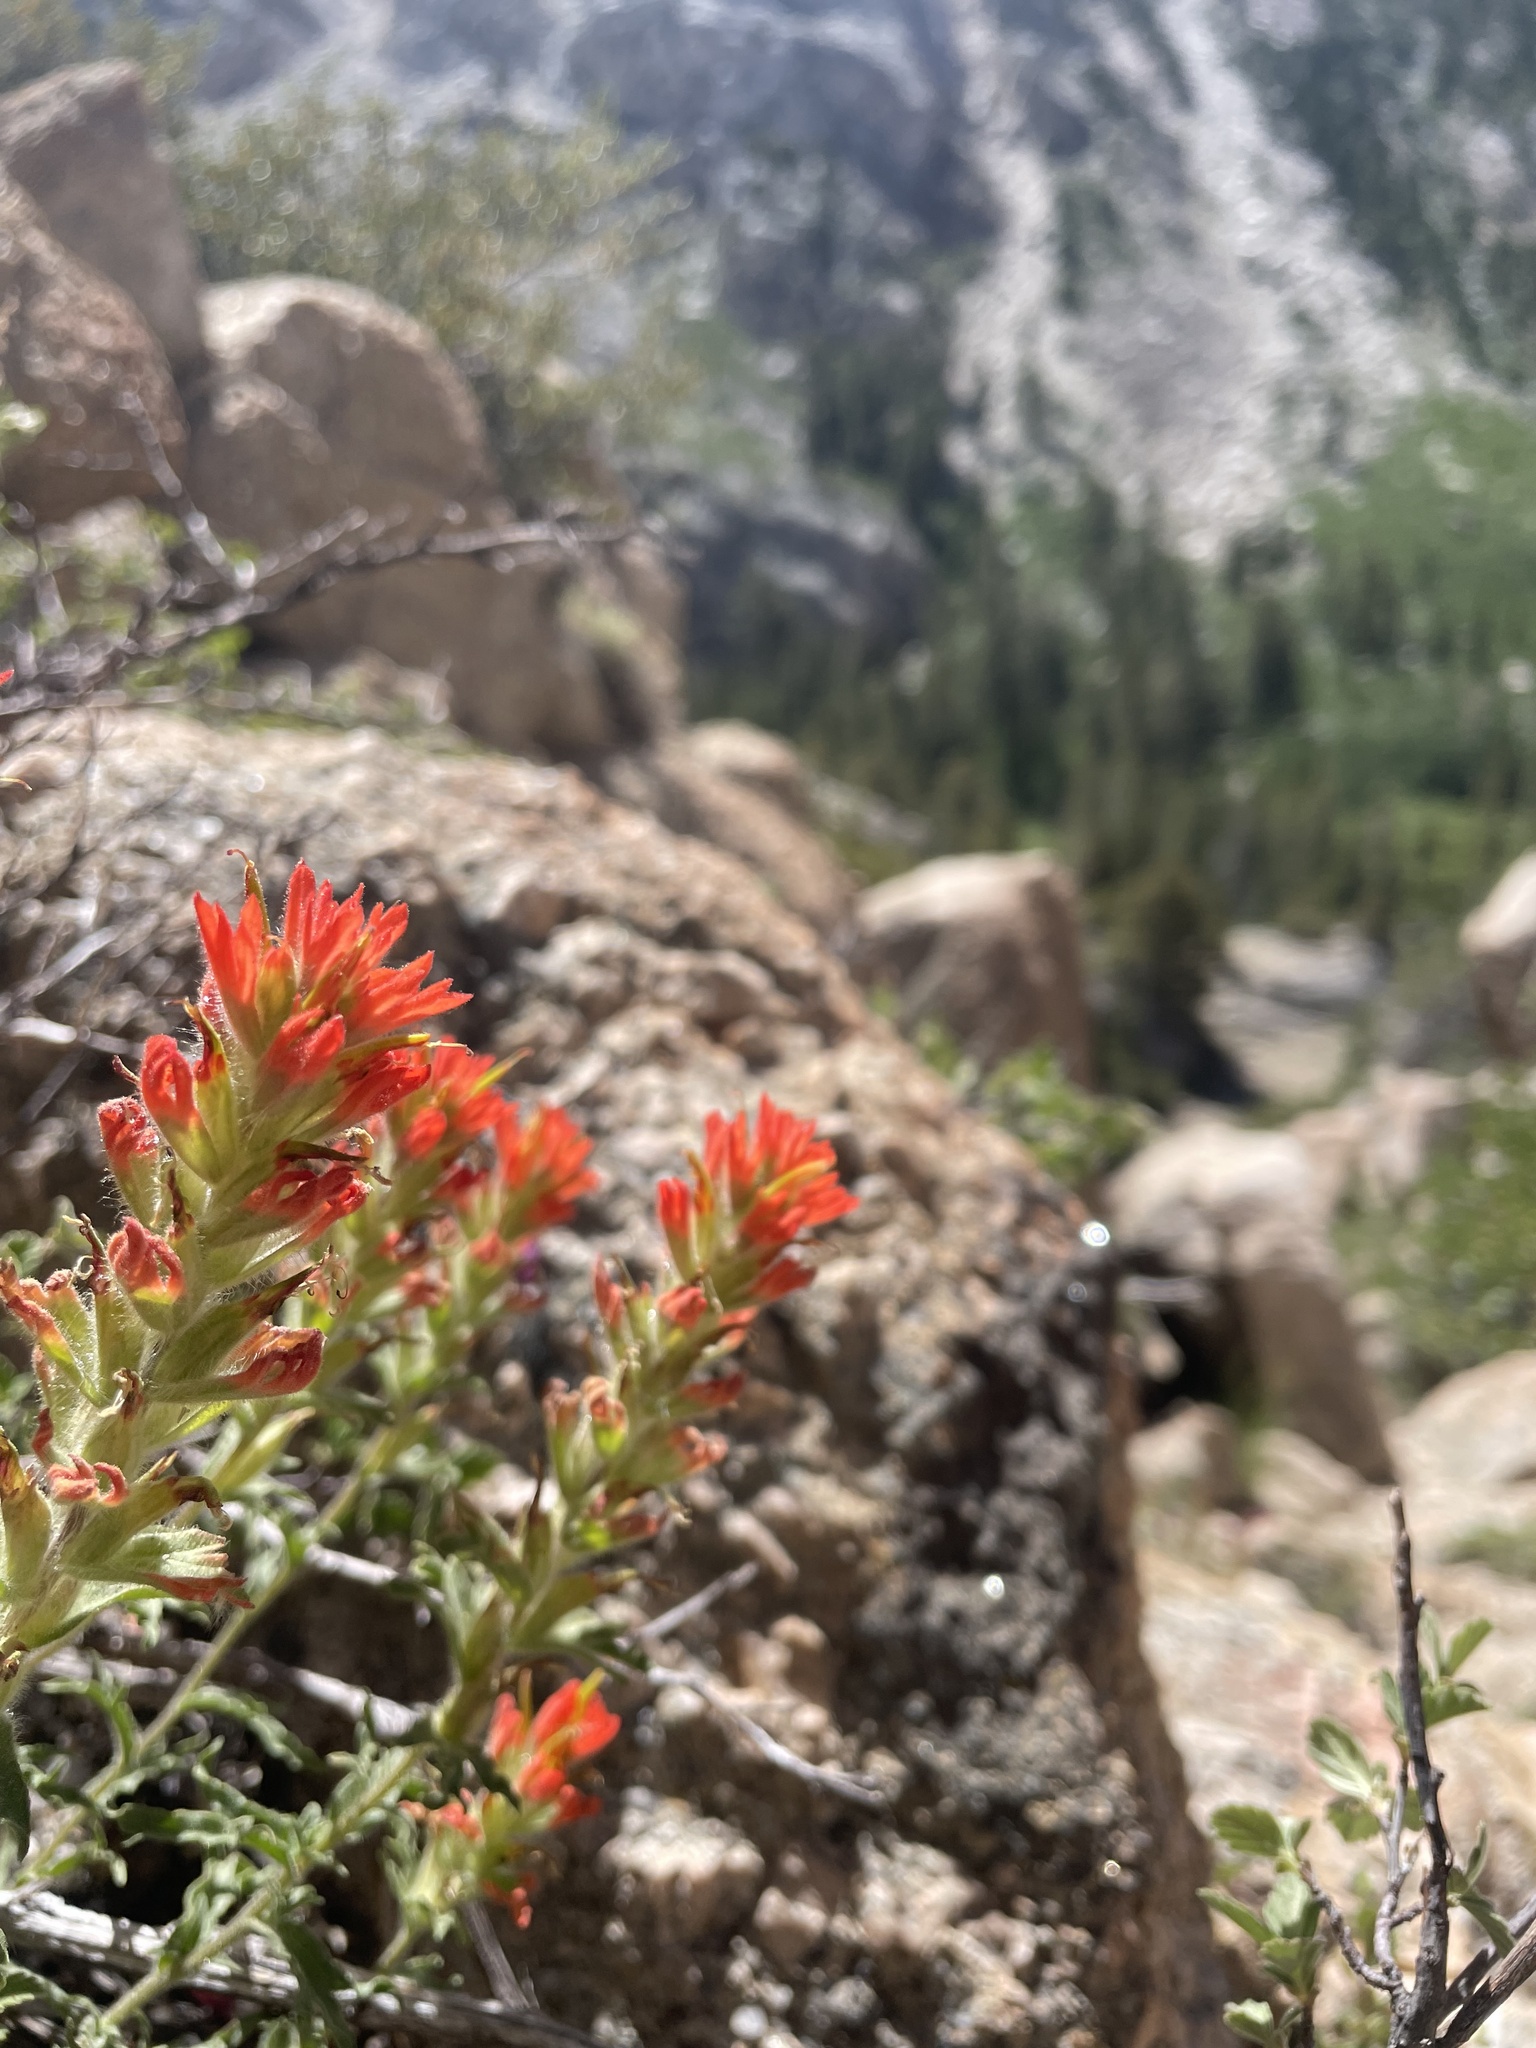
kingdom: Plantae
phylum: Tracheophyta
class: Magnoliopsida
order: Lamiales
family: Orobanchaceae
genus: Castilleja
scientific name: Castilleja applegatei
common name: Wavy-leaf paintbrush
